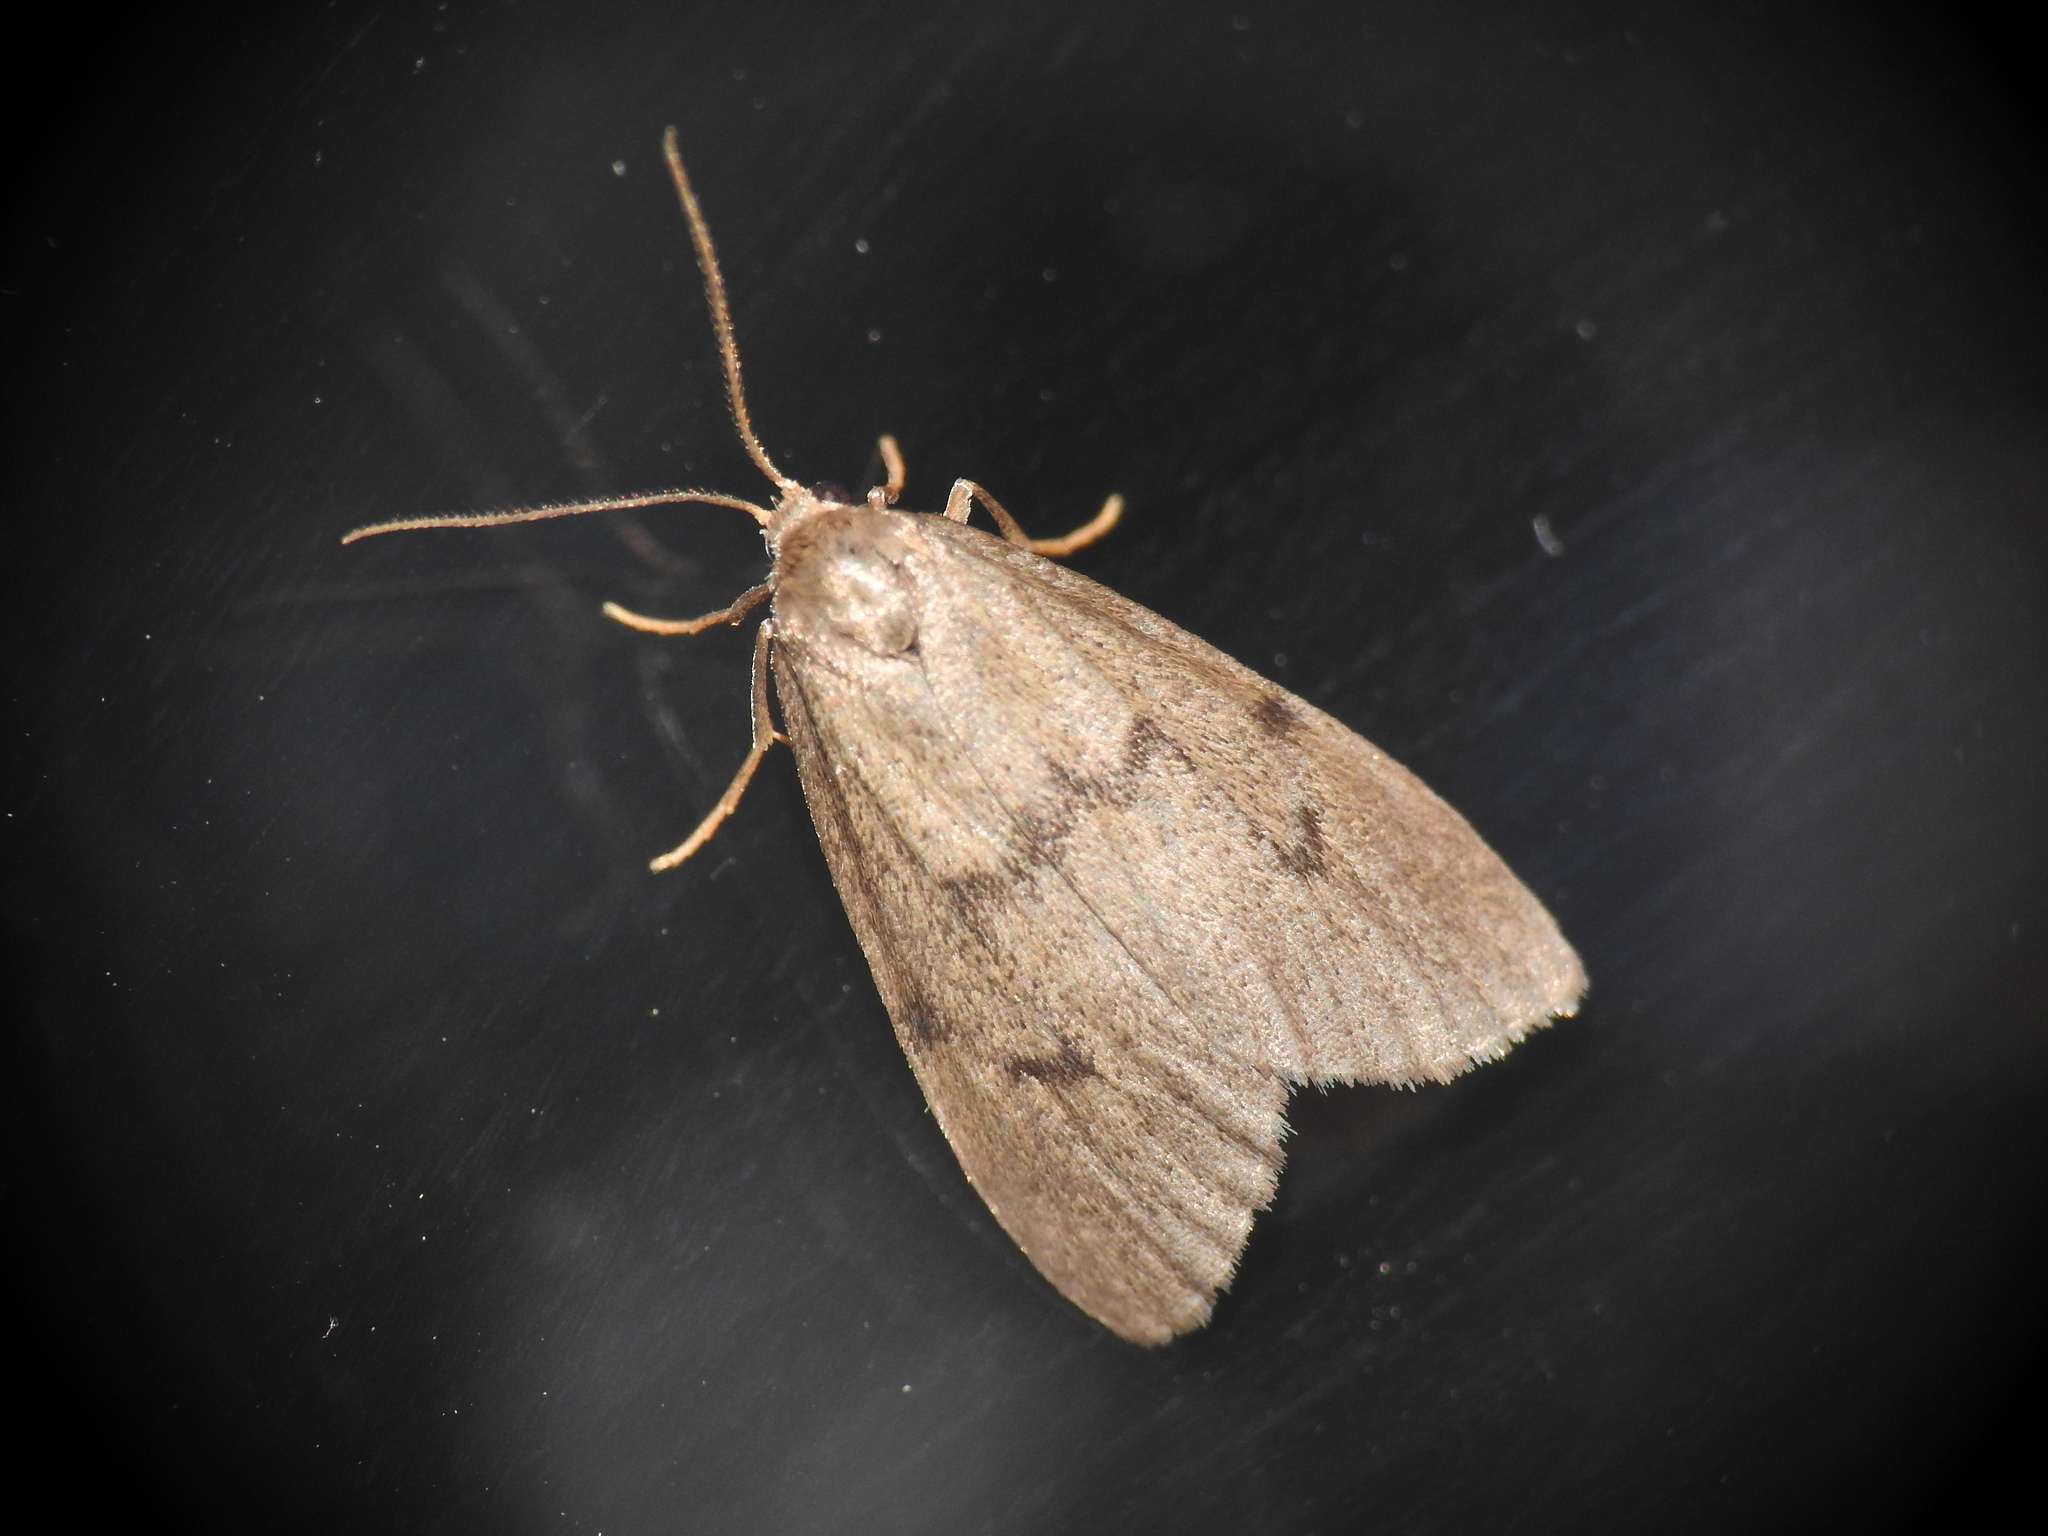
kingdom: Animalia
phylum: Arthropoda
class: Insecta
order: Lepidoptera
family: Erebidae
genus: Apaidia
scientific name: Apaidia mesogona
